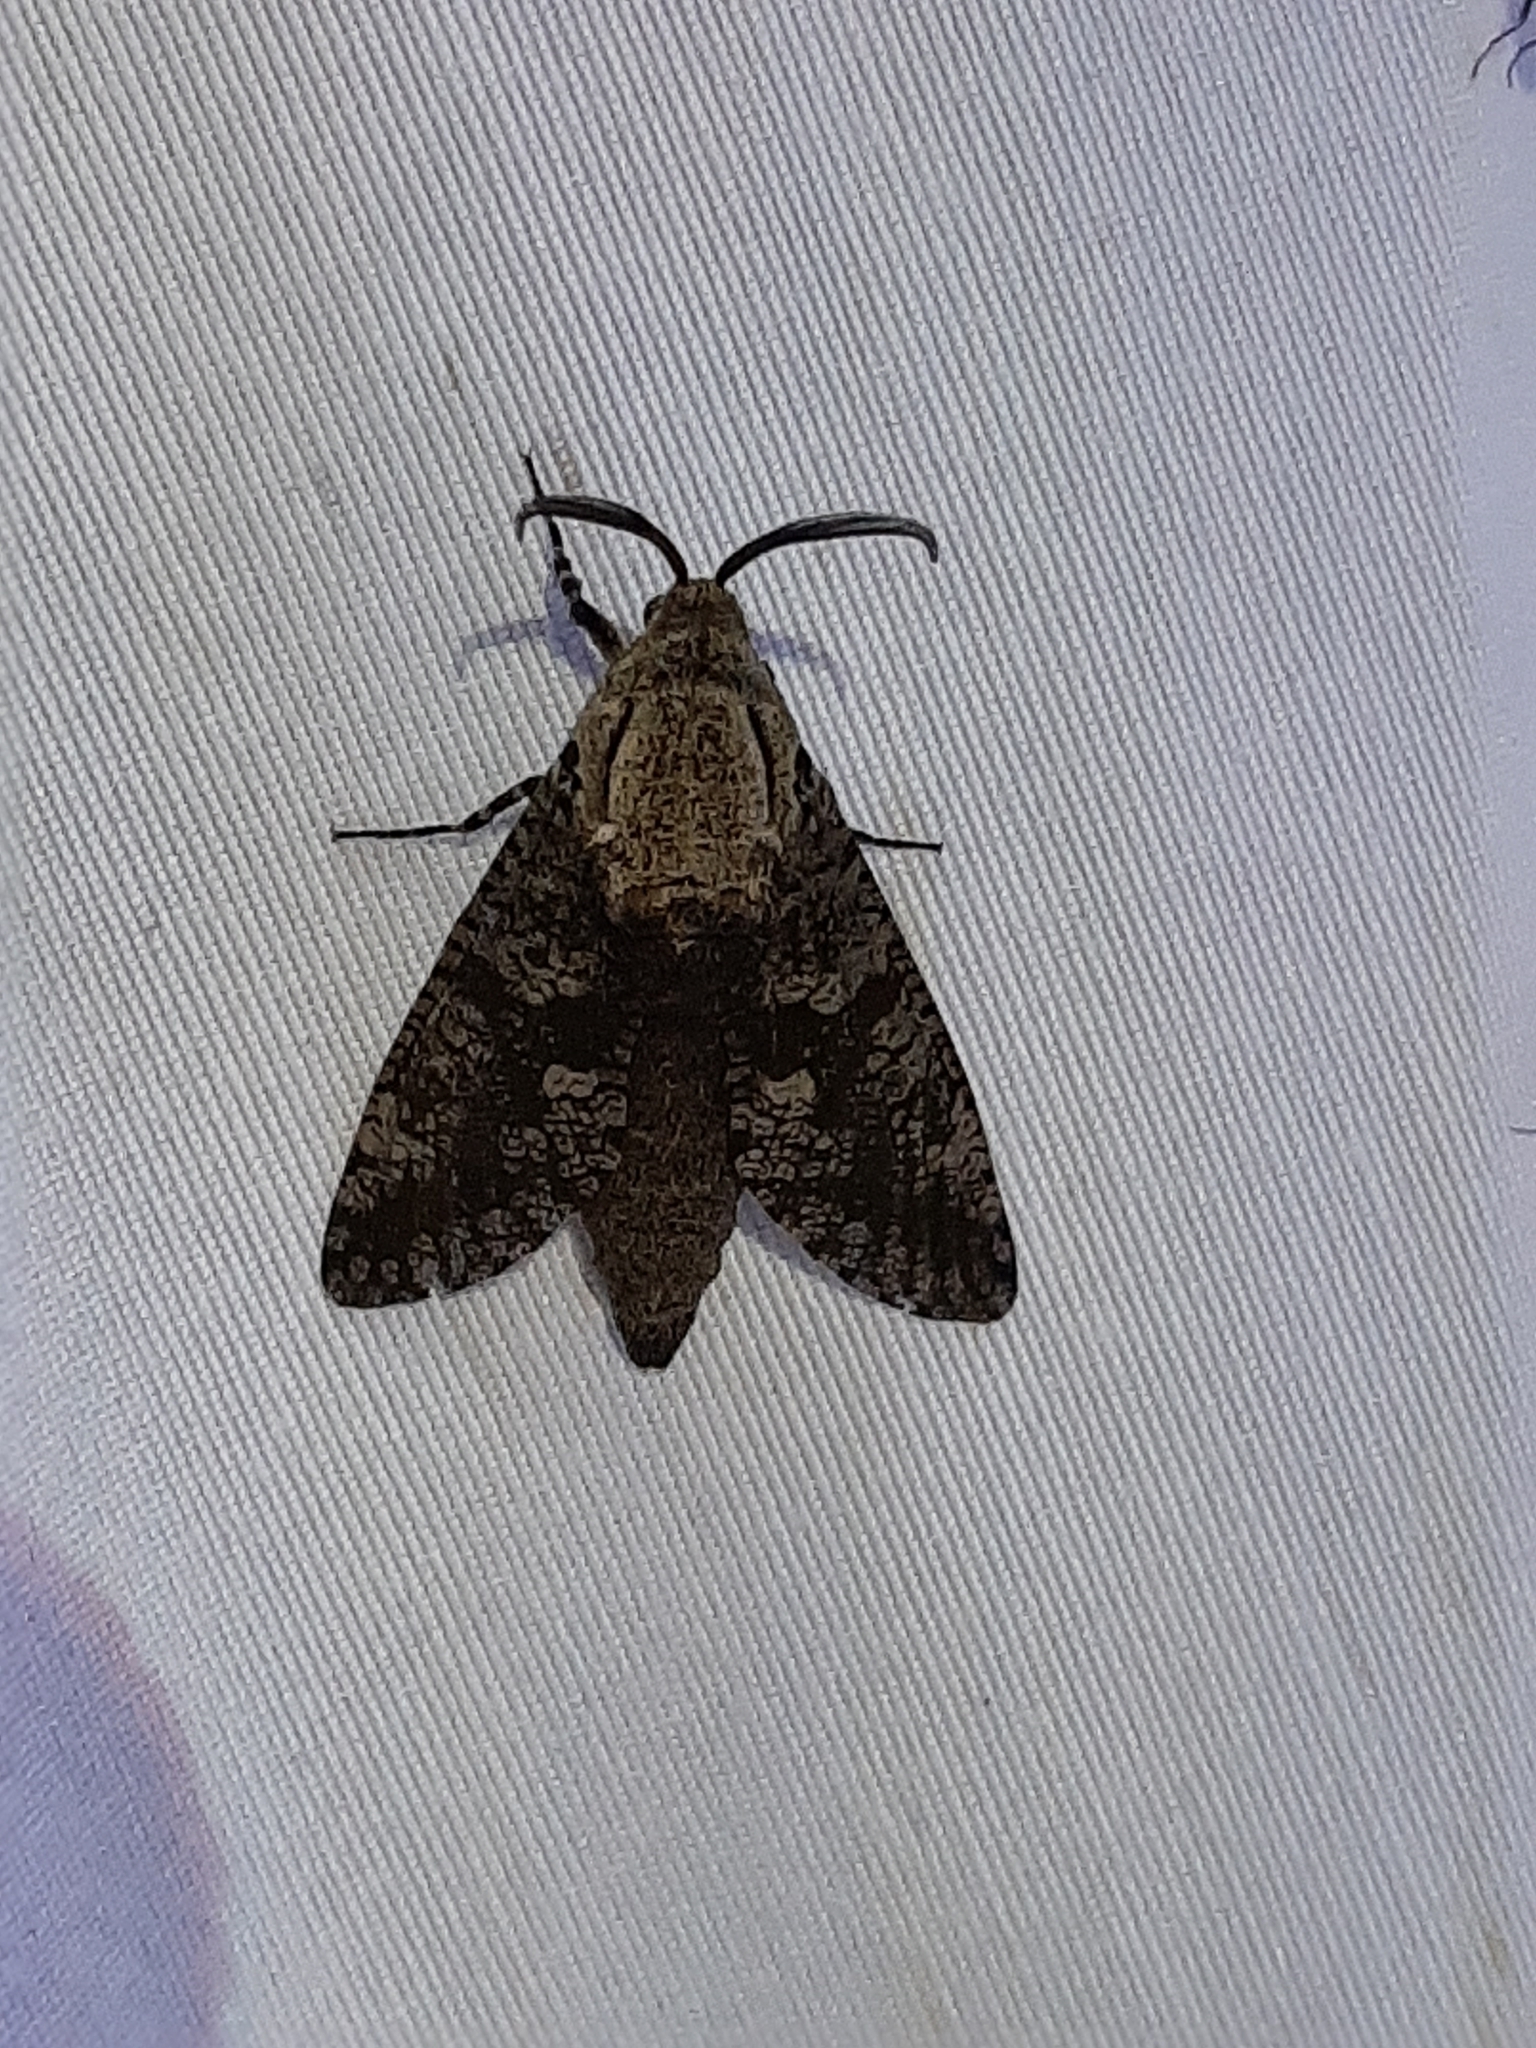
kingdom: Animalia
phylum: Arthropoda
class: Insecta
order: Lepidoptera
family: Cossidae
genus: Prionoxystus
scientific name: Prionoxystus robiniae
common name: Carpenterworm
